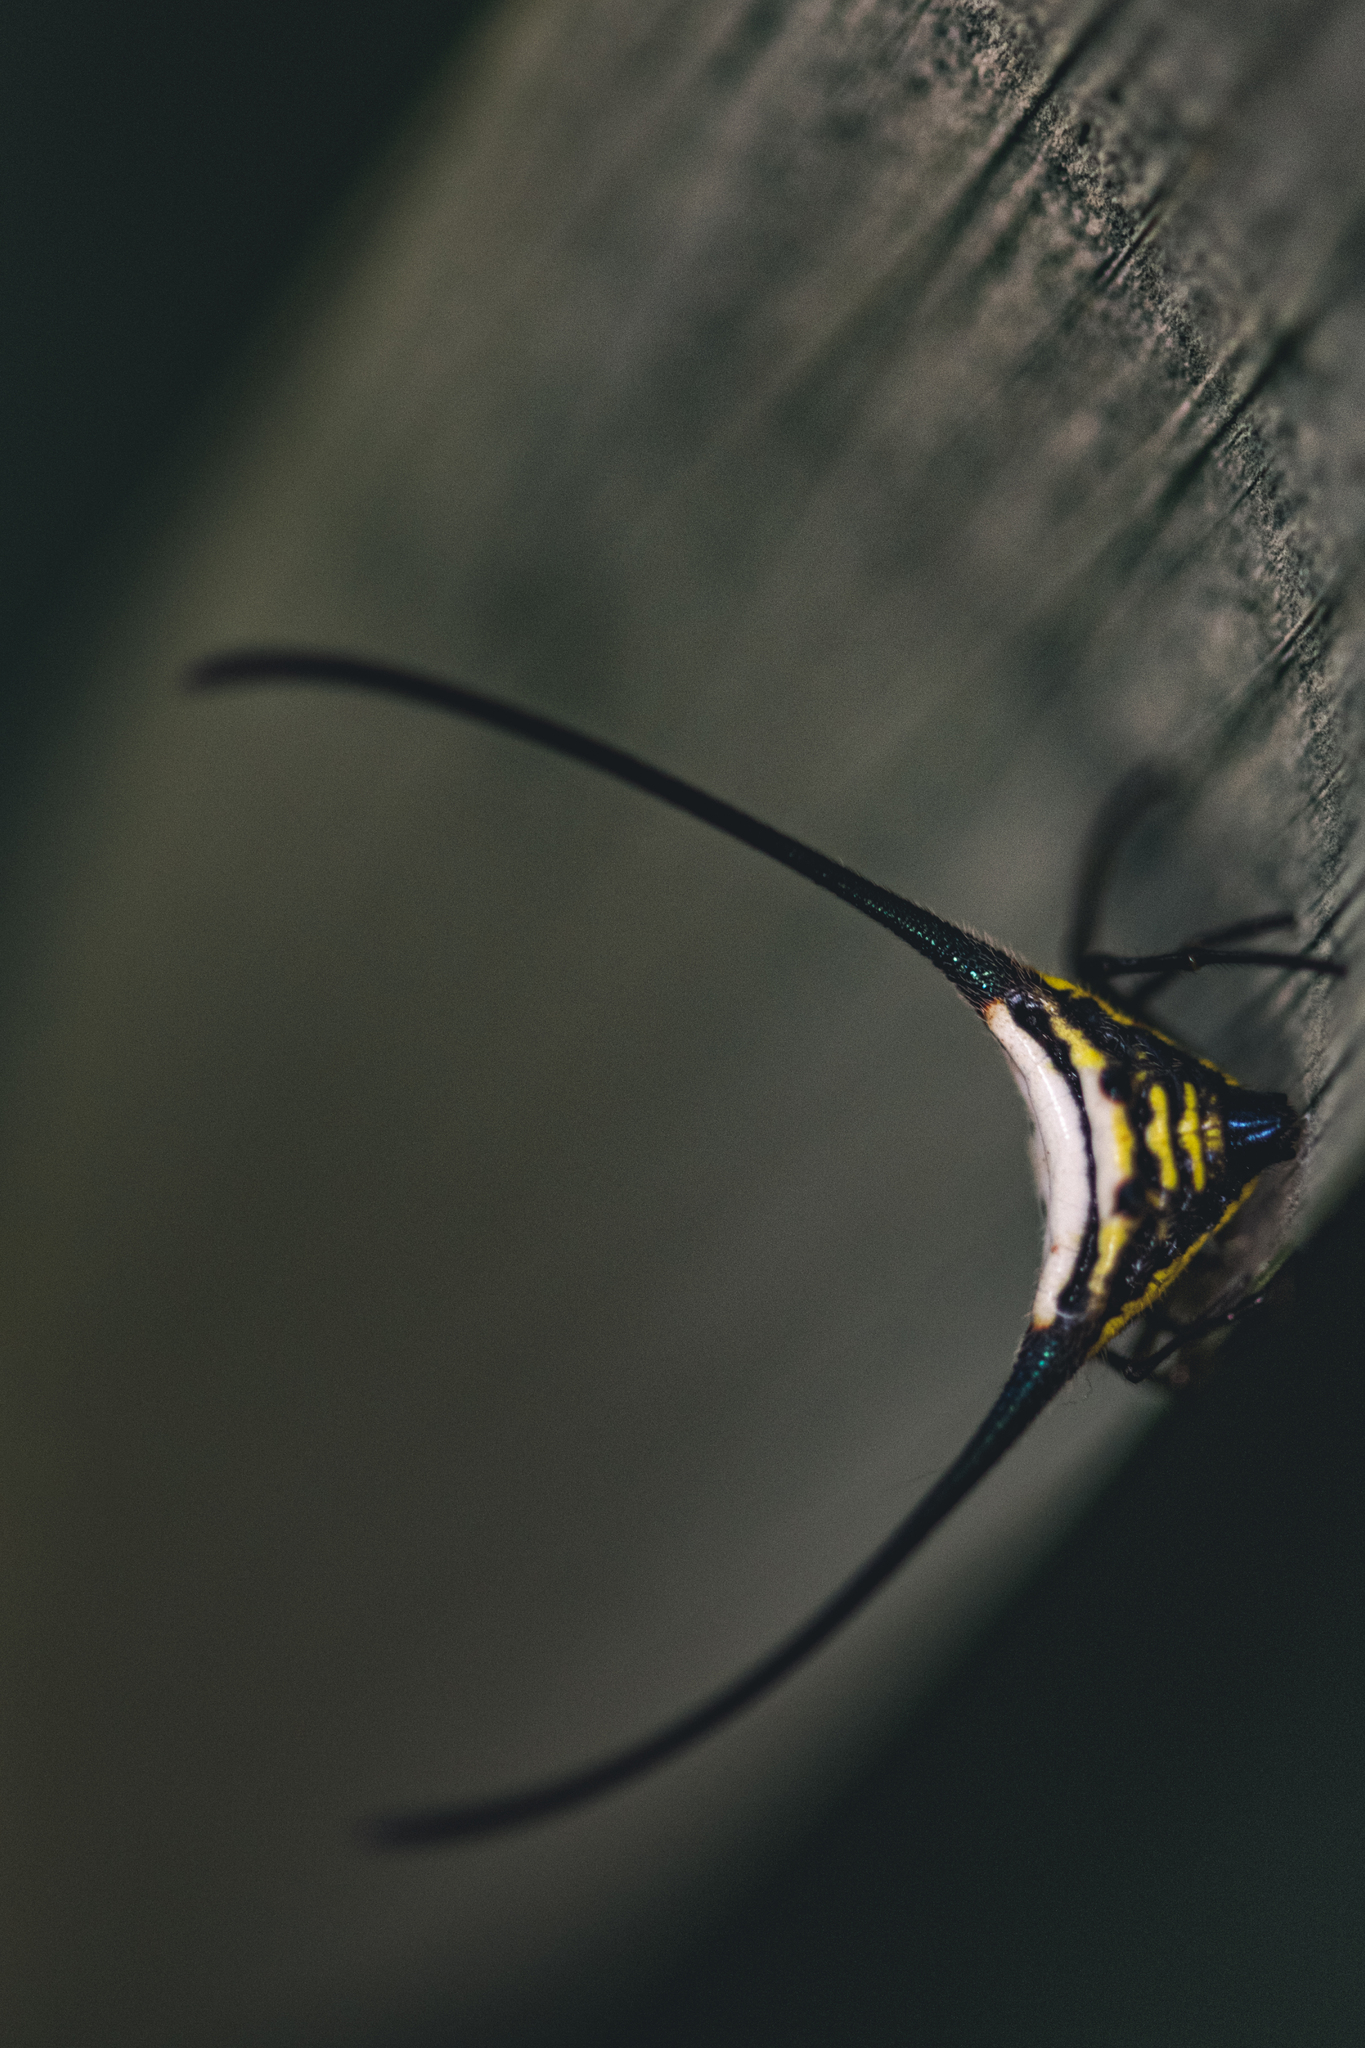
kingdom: Animalia
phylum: Arthropoda
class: Arachnida
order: Araneae
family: Araneidae
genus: Macracantha
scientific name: Macracantha arcuata
